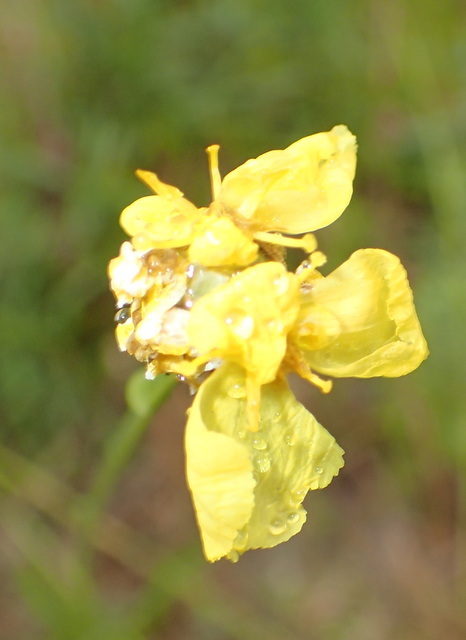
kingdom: Plantae
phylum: Tracheophyta
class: Liliopsida
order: Poales
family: Xyridaceae
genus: Xyris
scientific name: Xyris ambigua
